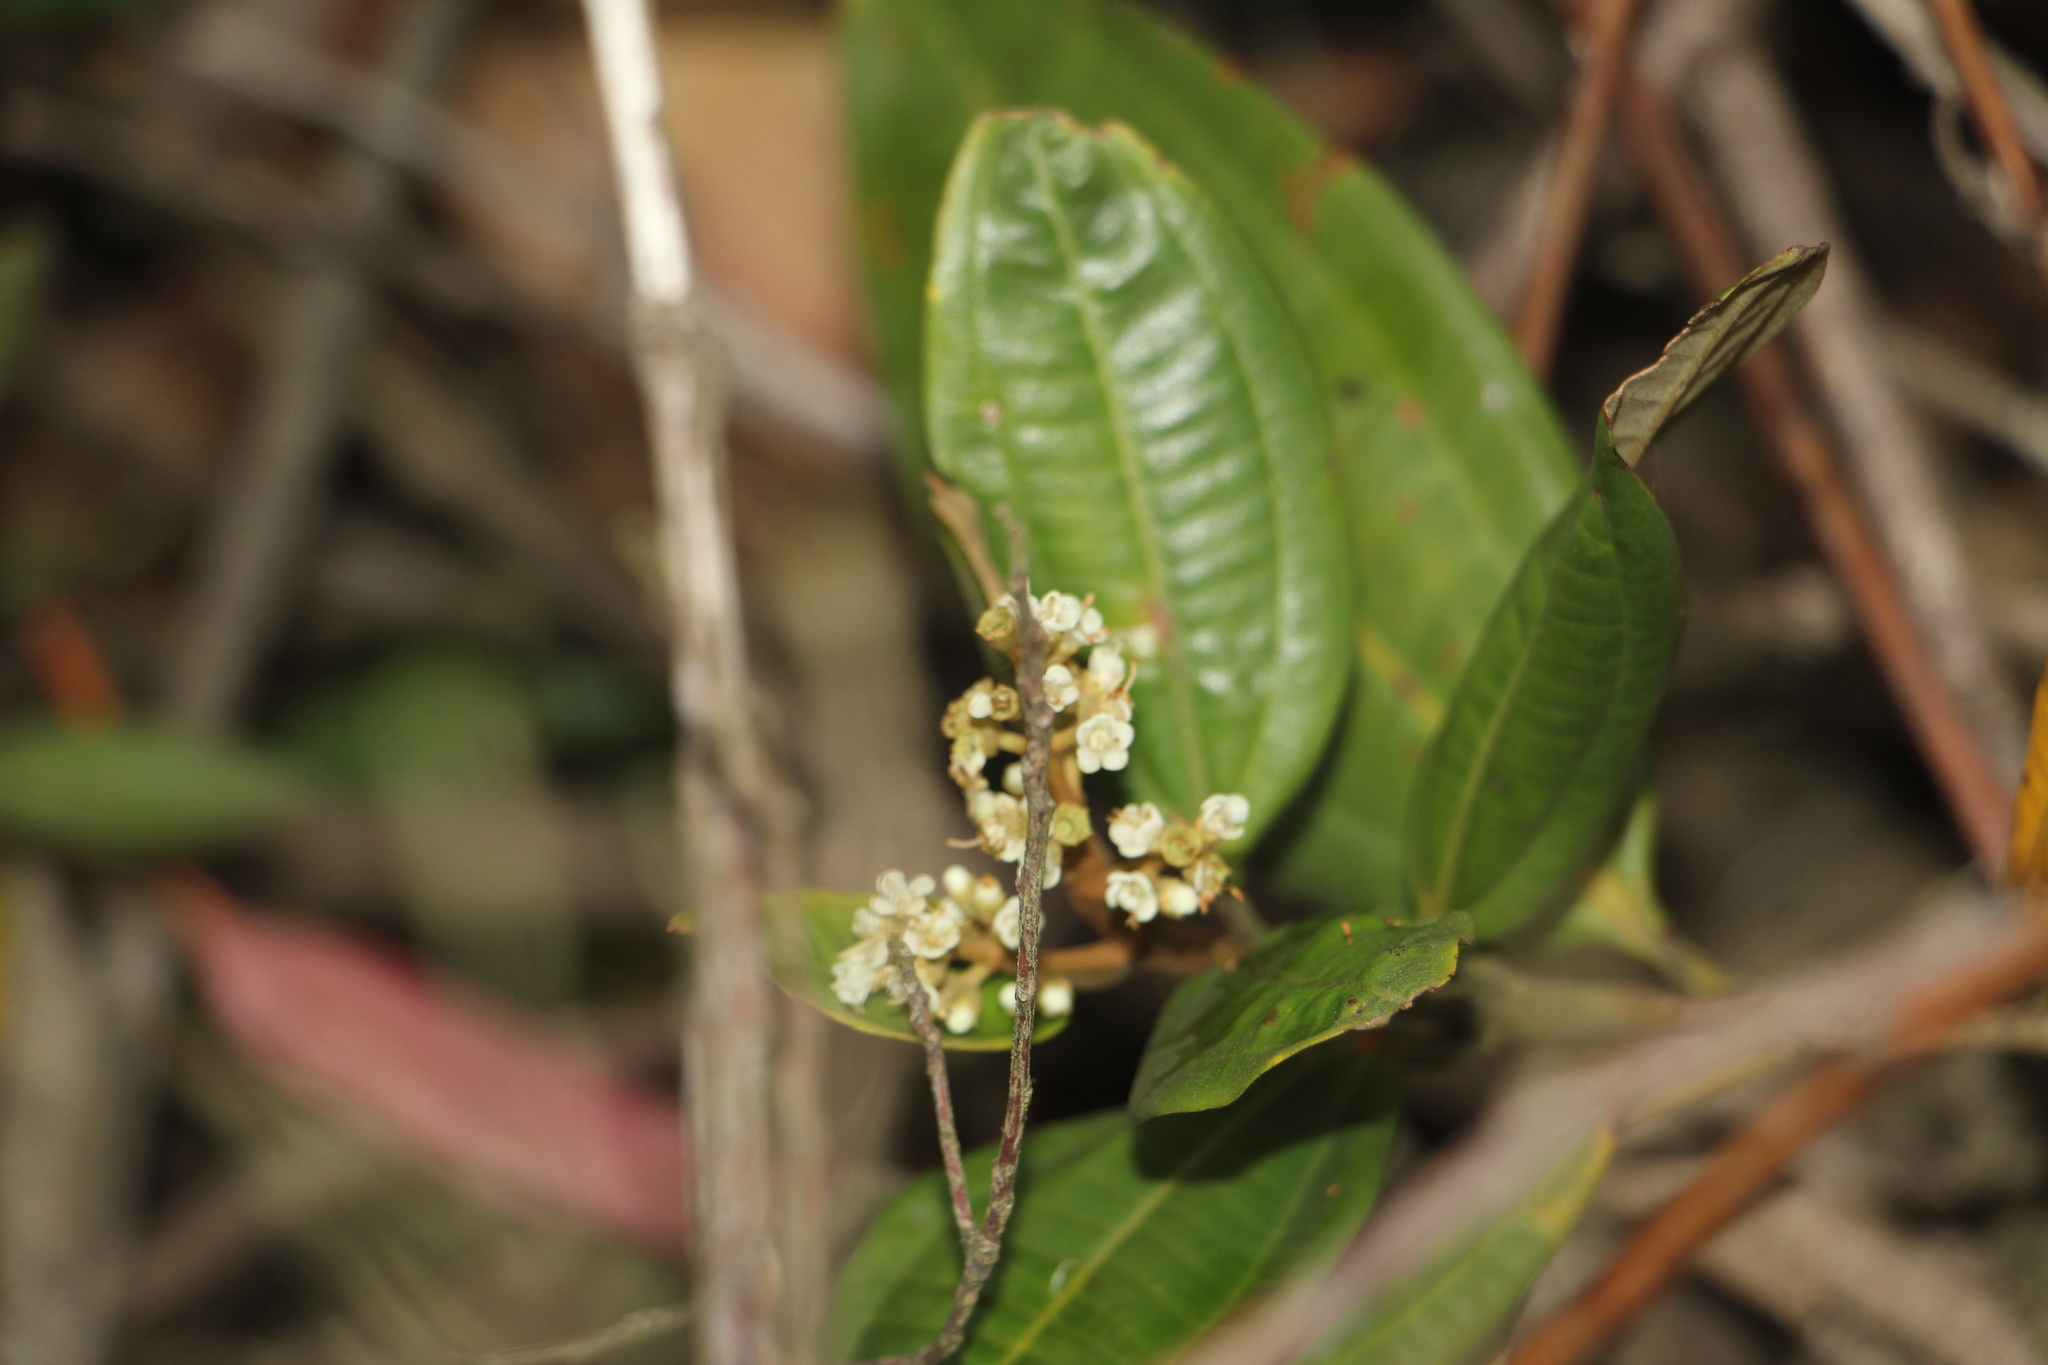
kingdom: Plantae
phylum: Tracheophyta
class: Magnoliopsida
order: Myrtales
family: Melastomataceae
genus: Miconia
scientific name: Miconia squamulosa
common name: Squamulose maya
